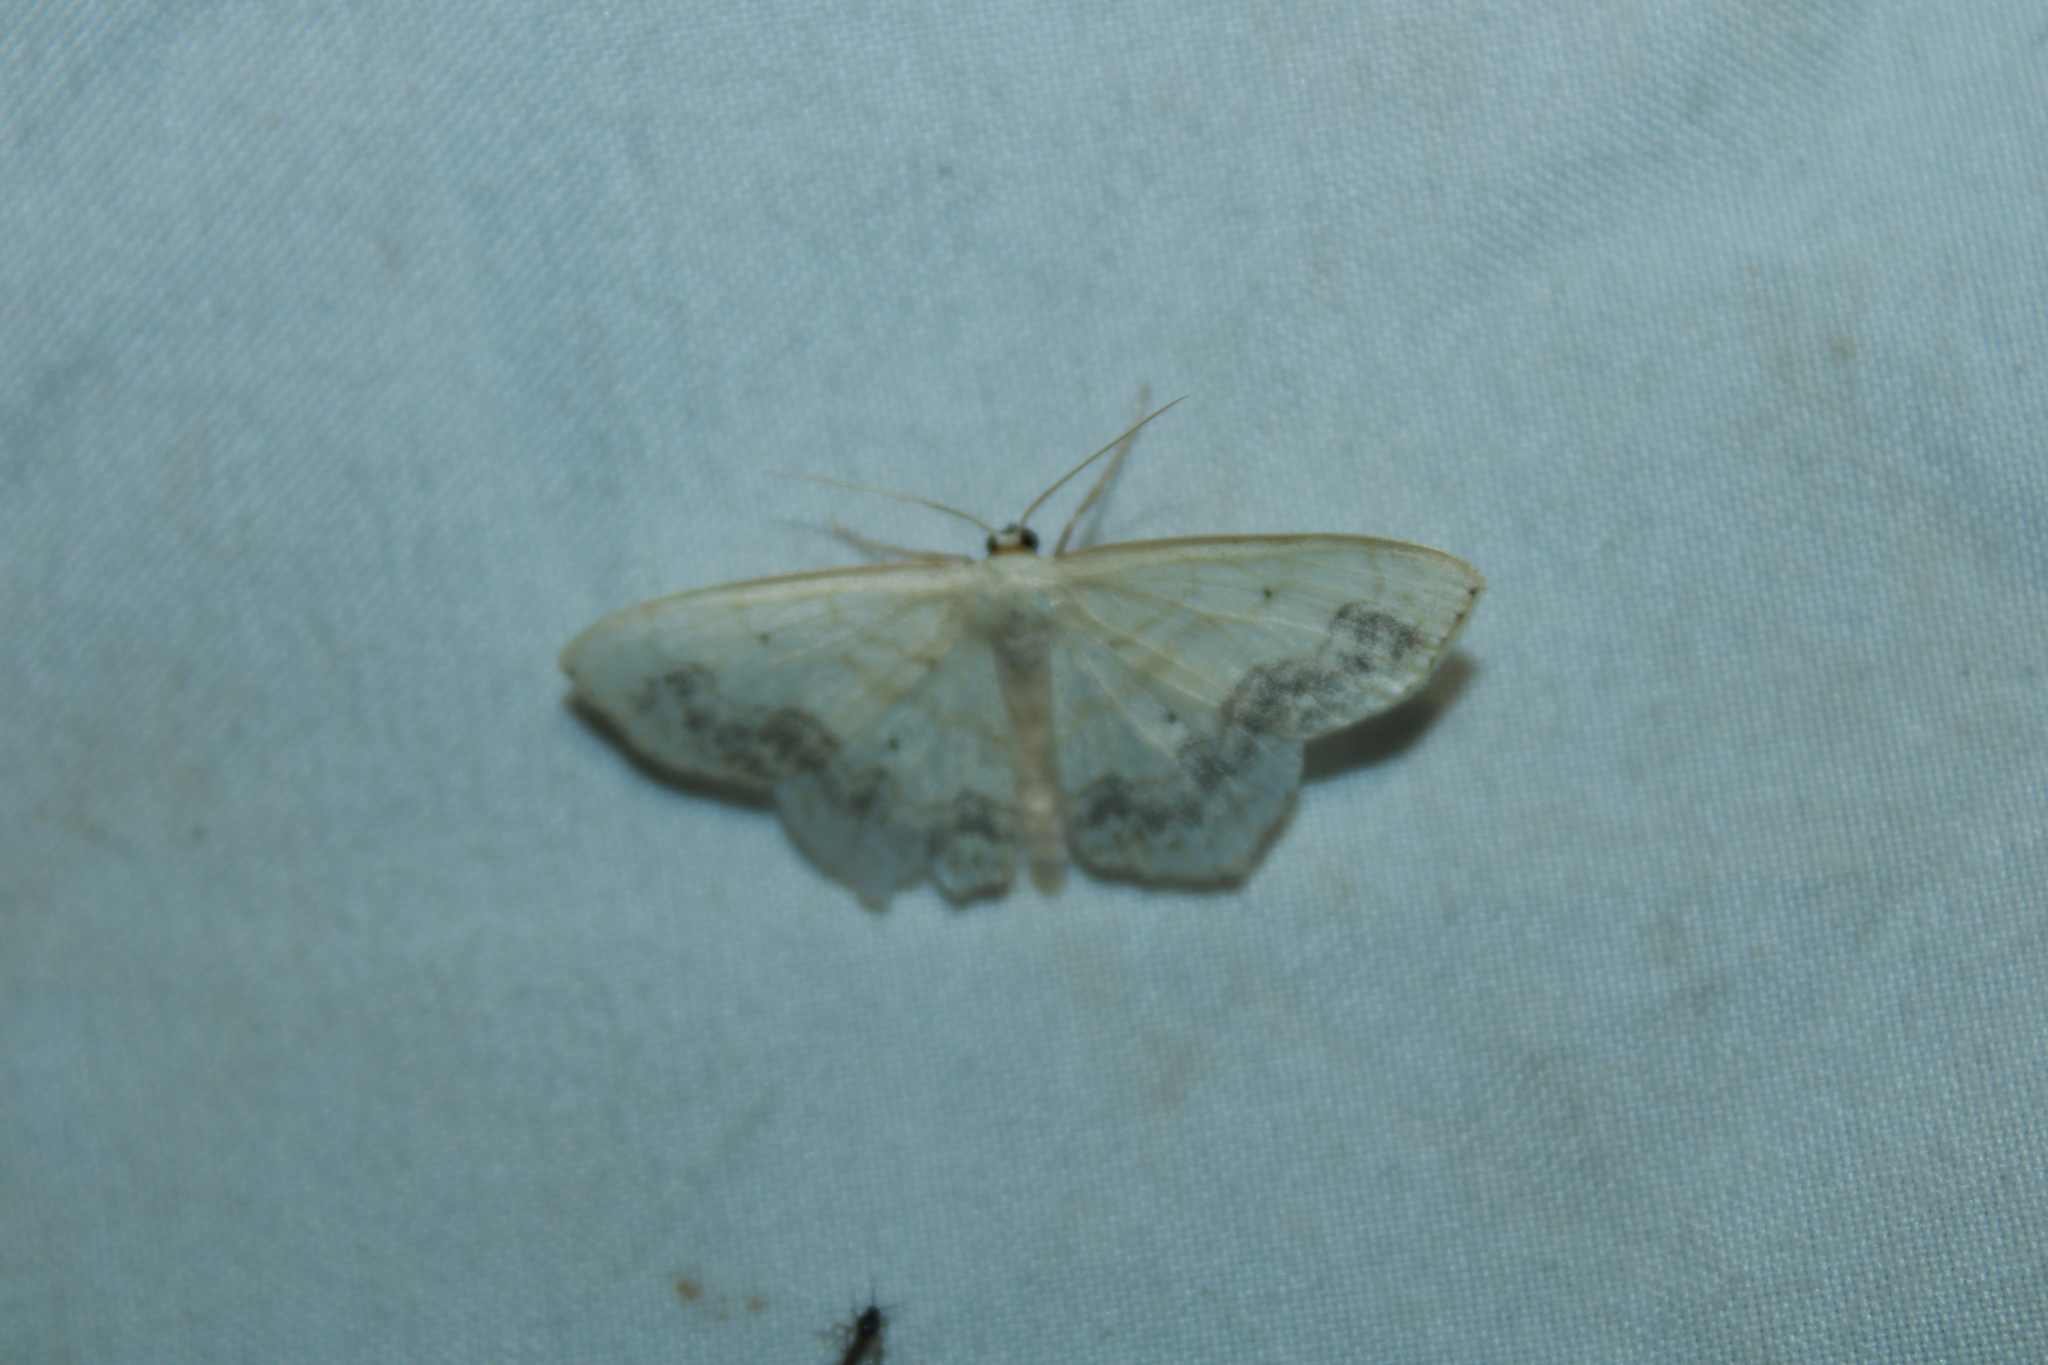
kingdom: Animalia
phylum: Arthropoda
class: Insecta
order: Lepidoptera
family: Geometridae
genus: Scopula
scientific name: Scopula limboundata
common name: Large lace border
